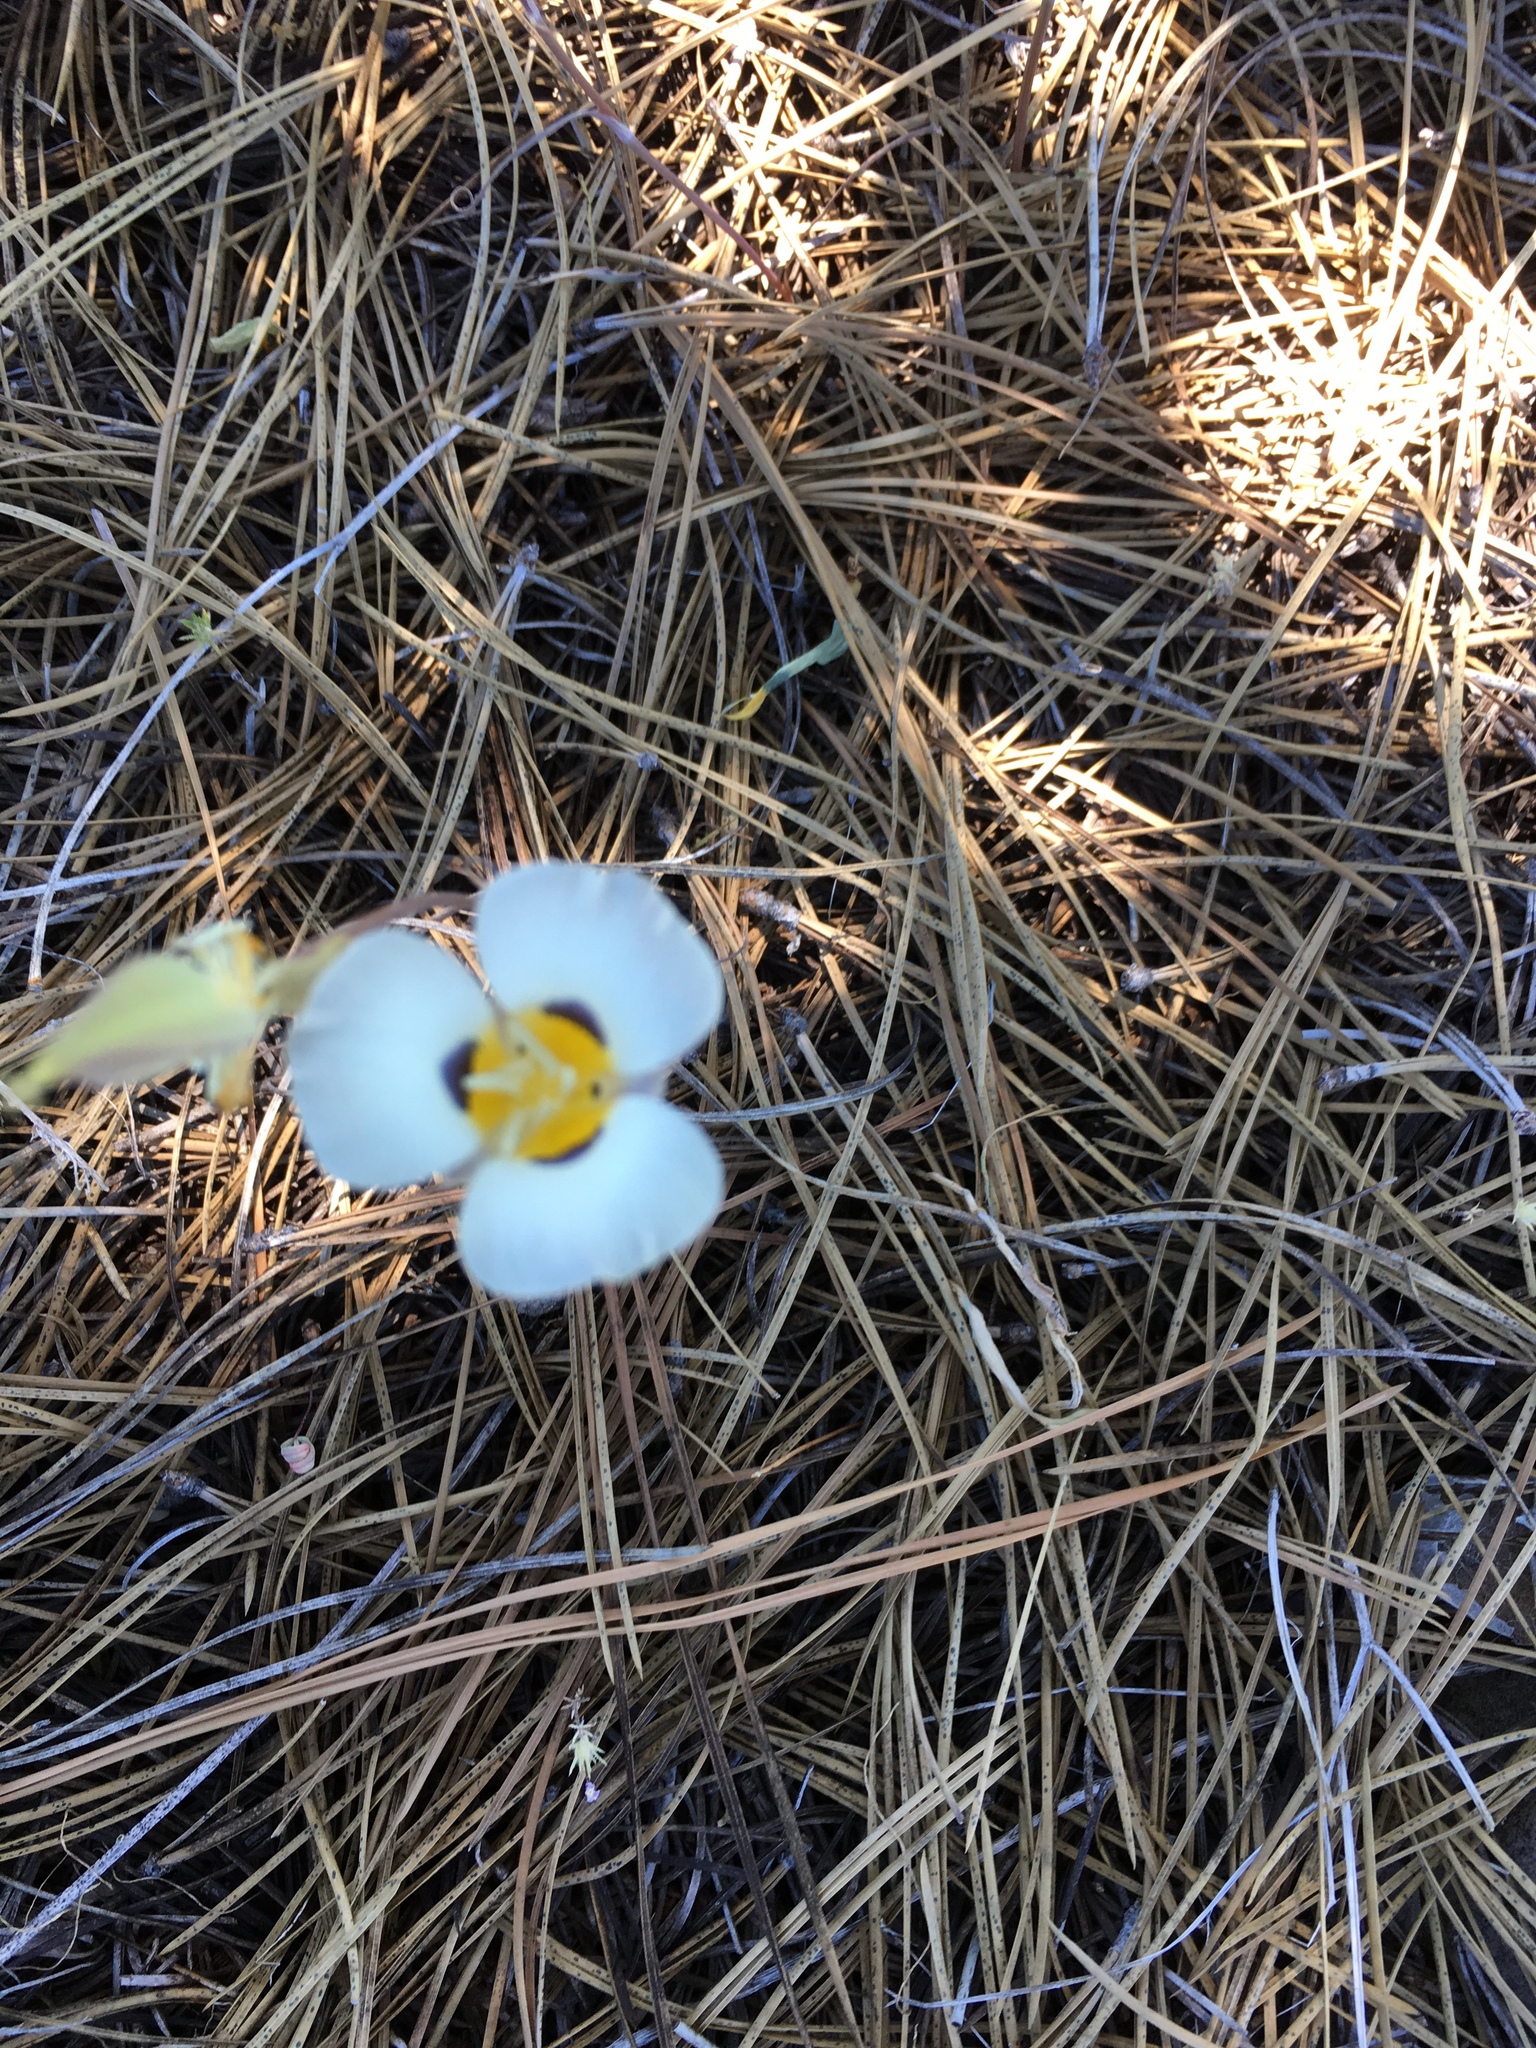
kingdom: Plantae
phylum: Tracheophyta
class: Liliopsida
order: Liliales
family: Liliaceae
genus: Calochortus
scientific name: Calochortus leichtlinii
